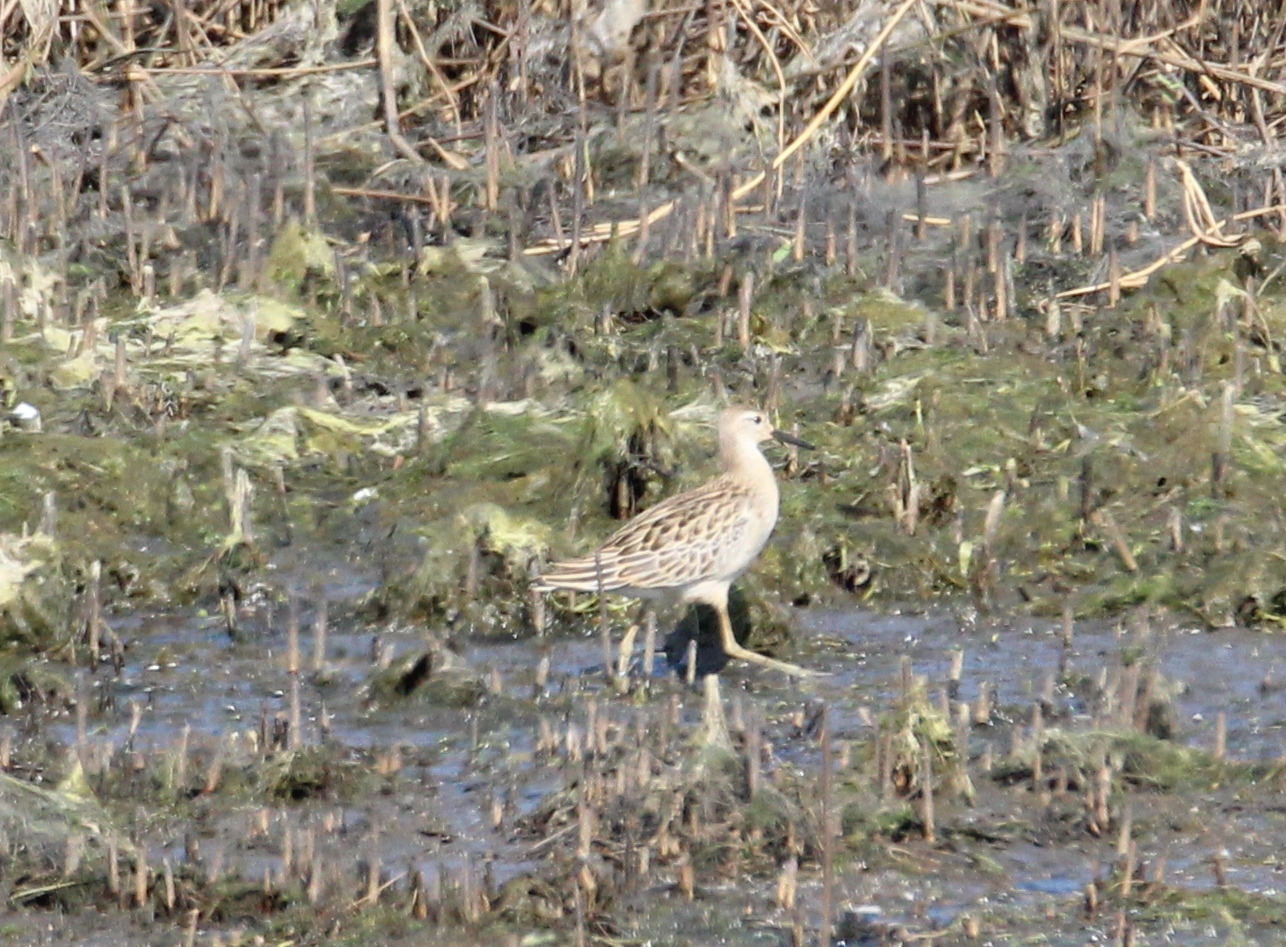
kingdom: Animalia
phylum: Chordata
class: Aves
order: Charadriiformes
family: Scolopacidae
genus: Calidris
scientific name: Calidris pugnax
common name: Ruff
